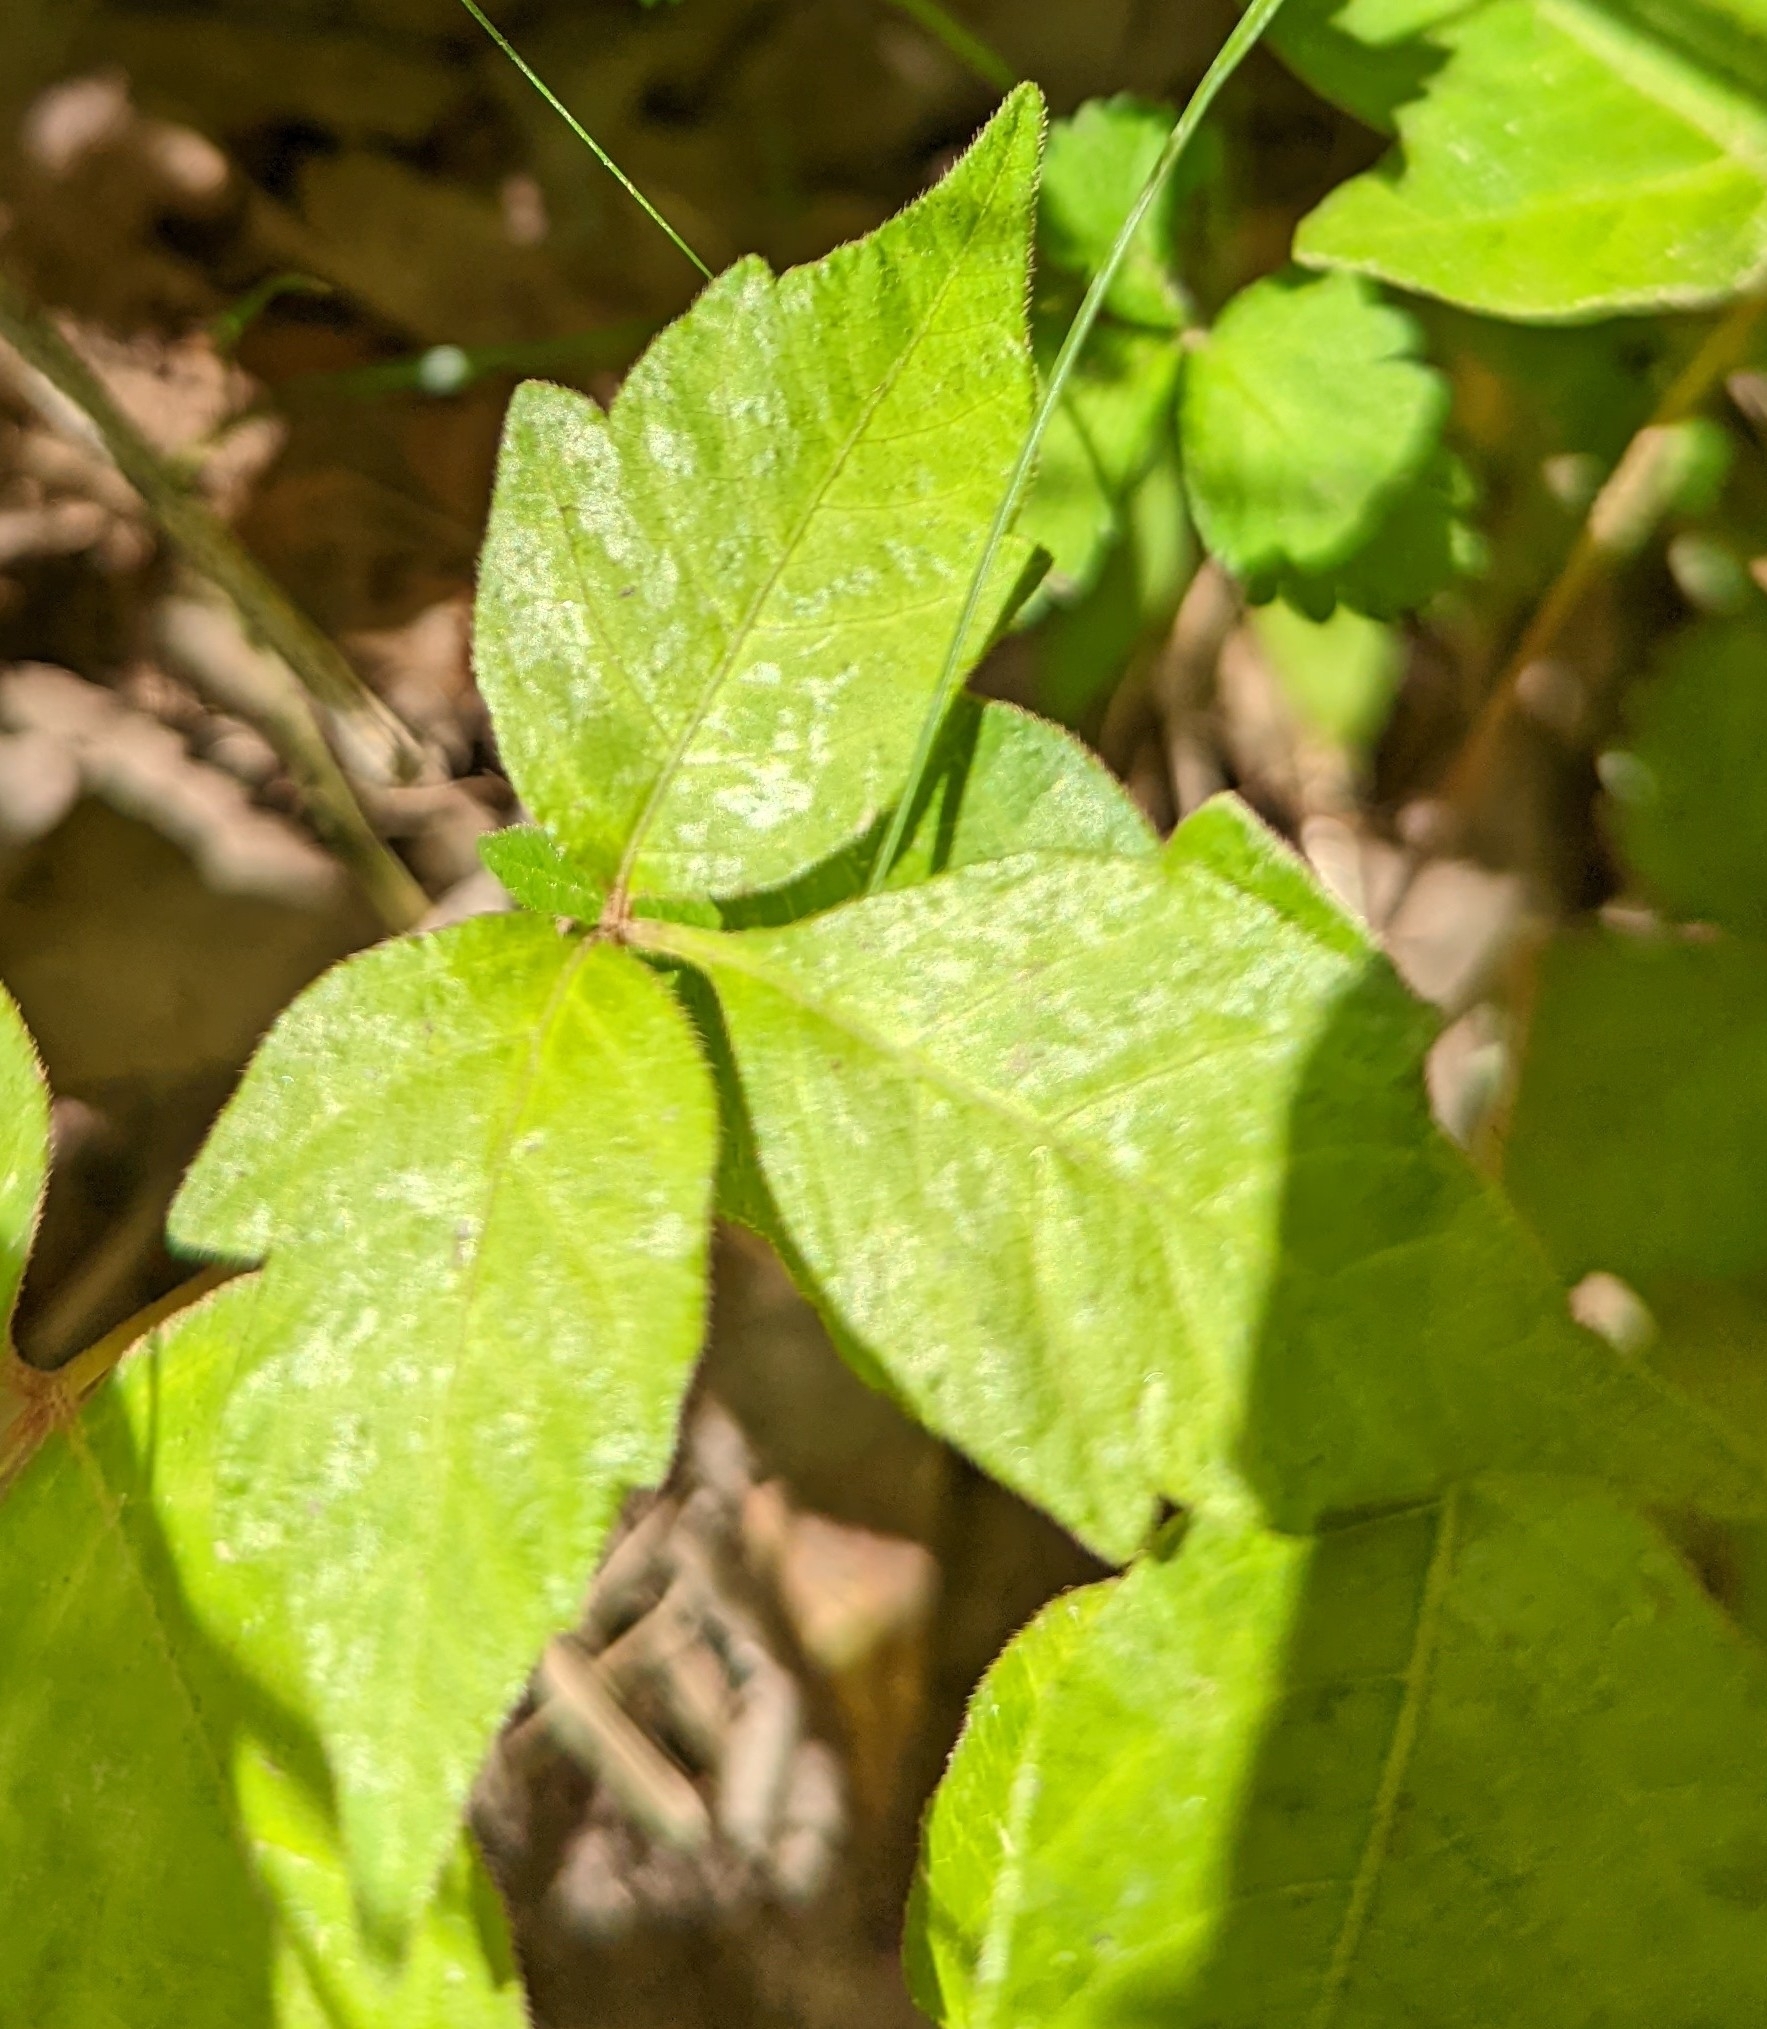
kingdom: Plantae
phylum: Tracheophyta
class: Magnoliopsida
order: Sapindales
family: Anacardiaceae
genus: Toxicodendron
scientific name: Toxicodendron radicans
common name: Poison ivy
